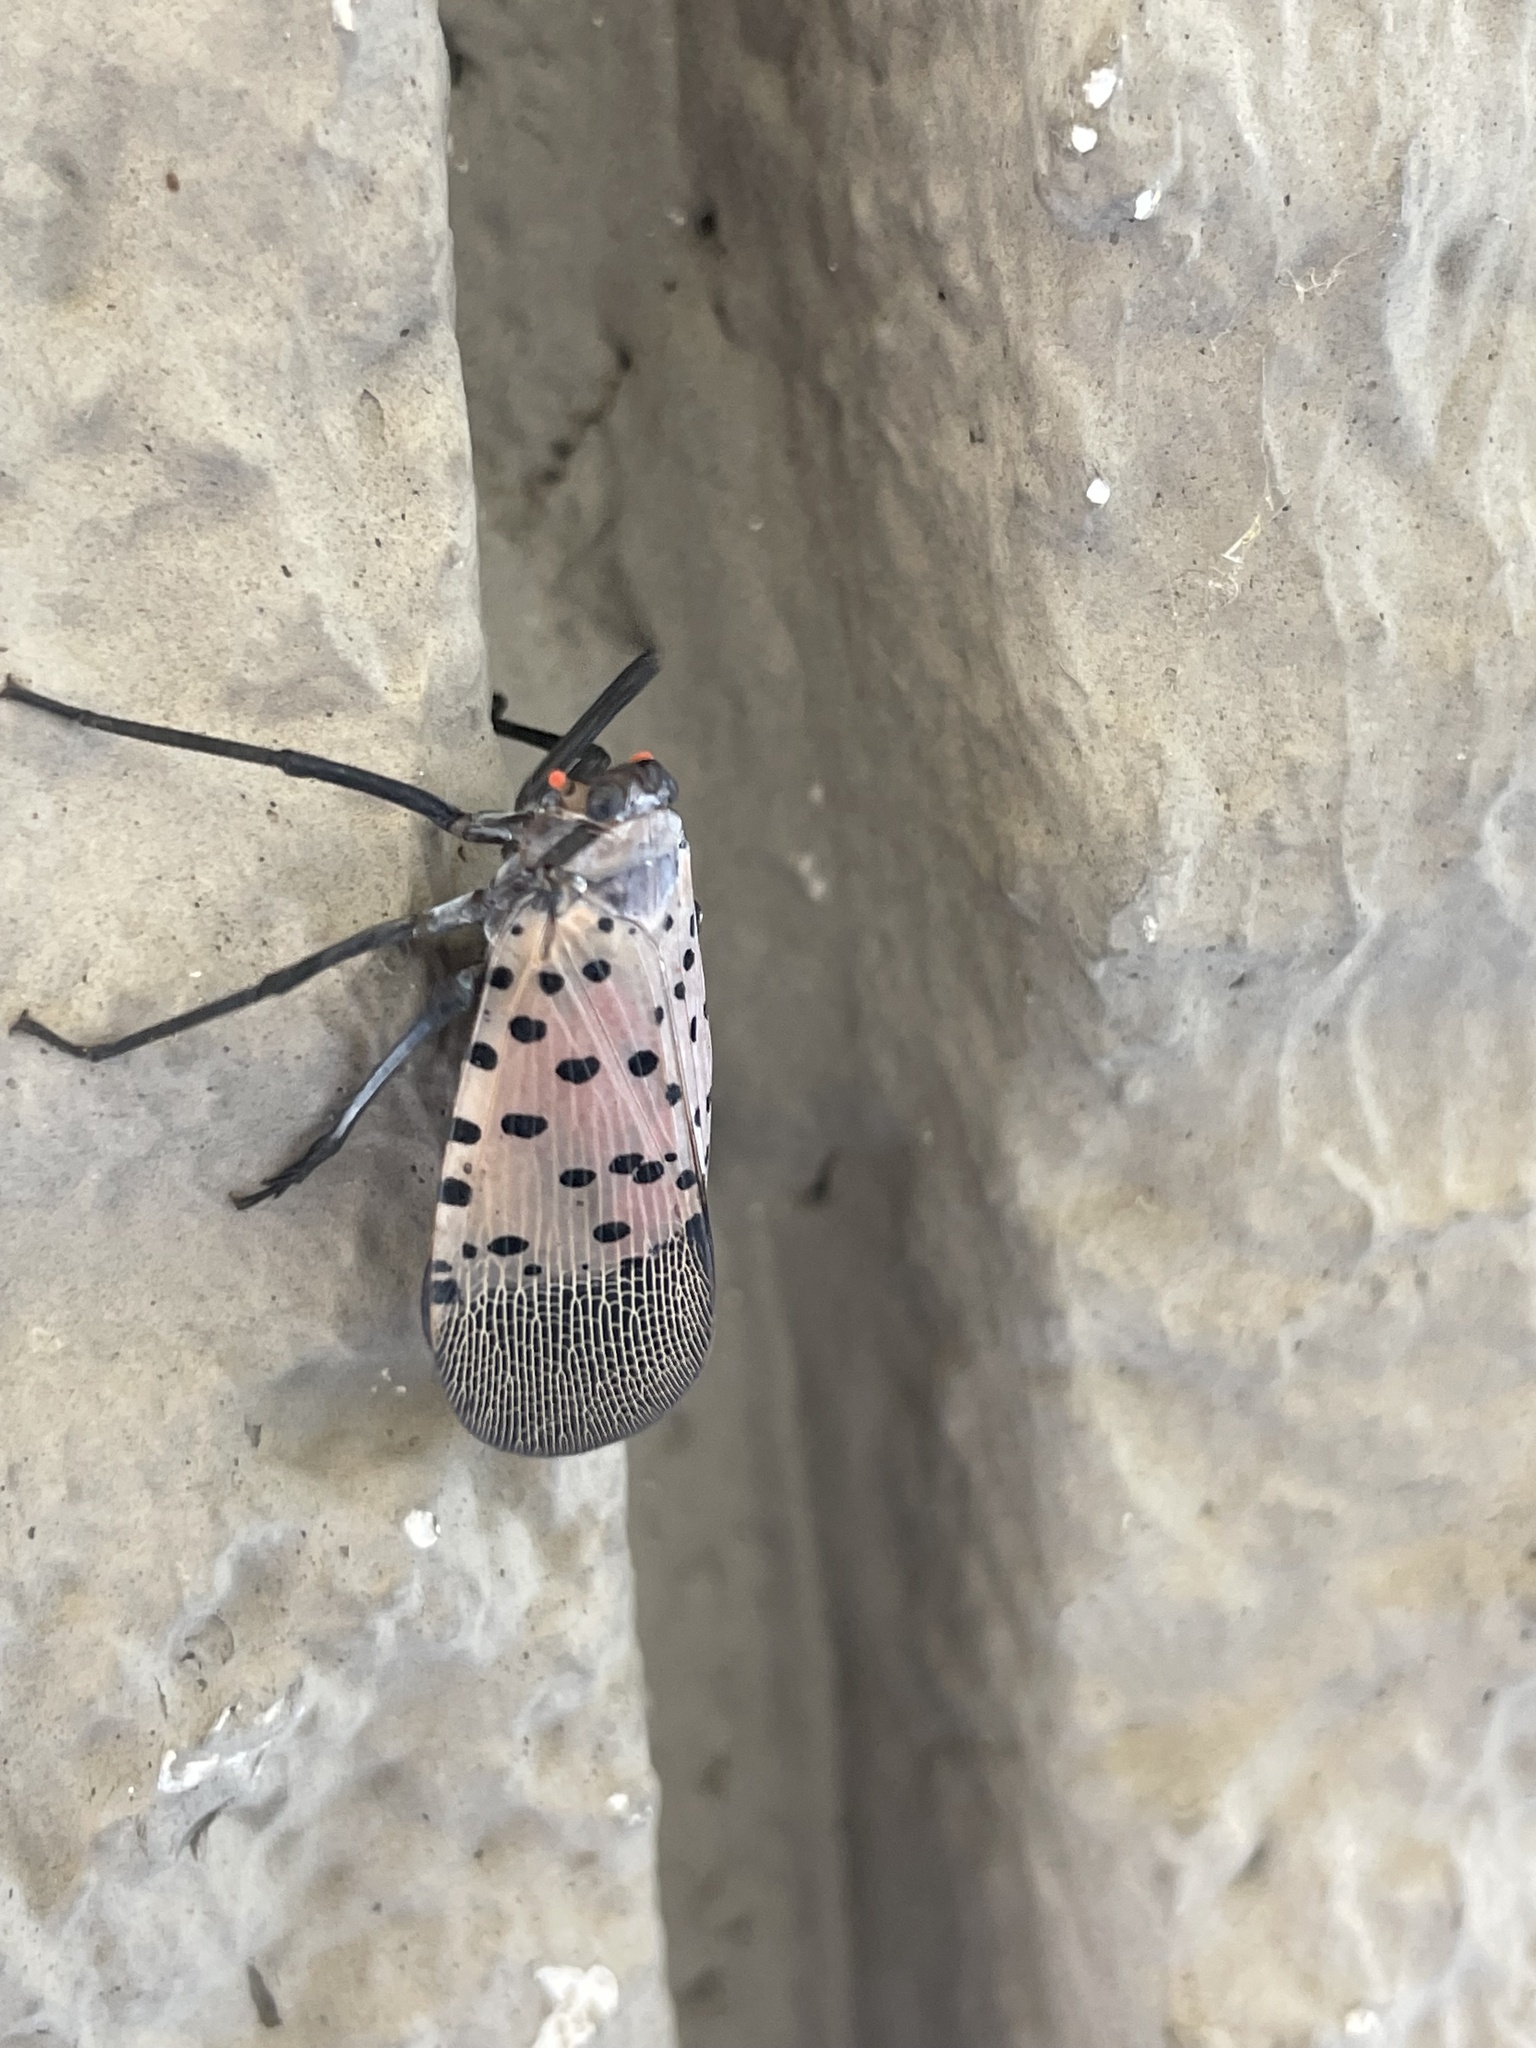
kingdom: Animalia
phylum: Arthropoda
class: Insecta
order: Hemiptera
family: Fulgoridae
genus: Lycorma
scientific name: Lycorma delicatula
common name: Spotted lanternfly
